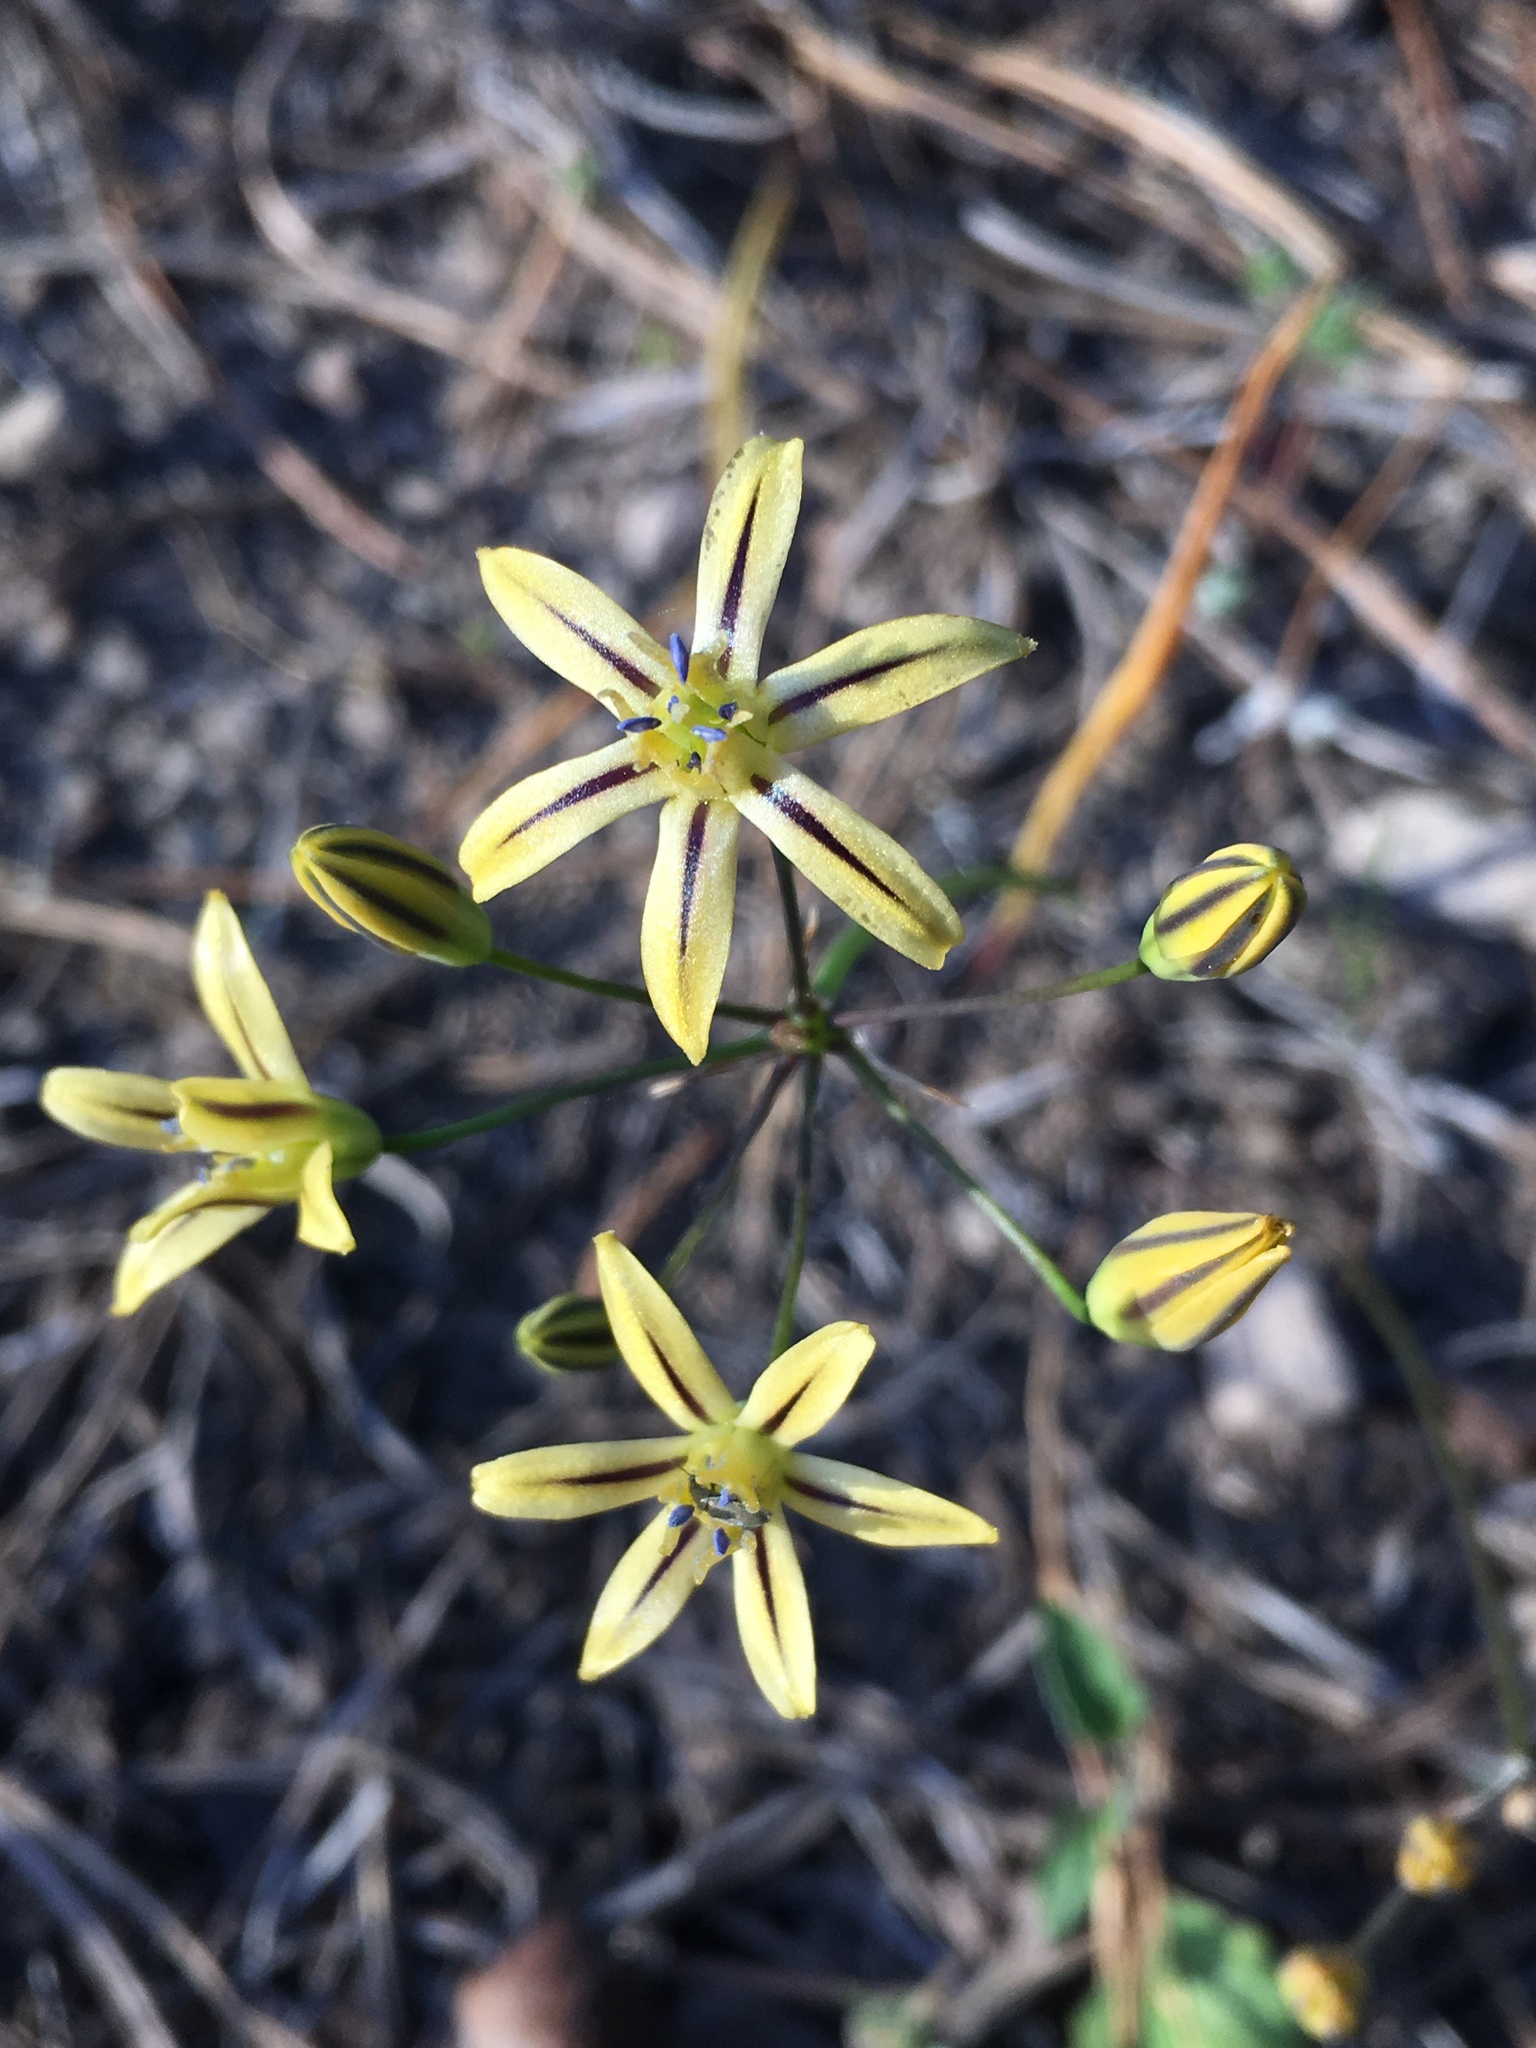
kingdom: Plantae
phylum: Tracheophyta
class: Liliopsida
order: Asparagales
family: Asparagaceae
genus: Triteleia
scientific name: Triteleia ixioides
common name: Yellow-brodiaea
